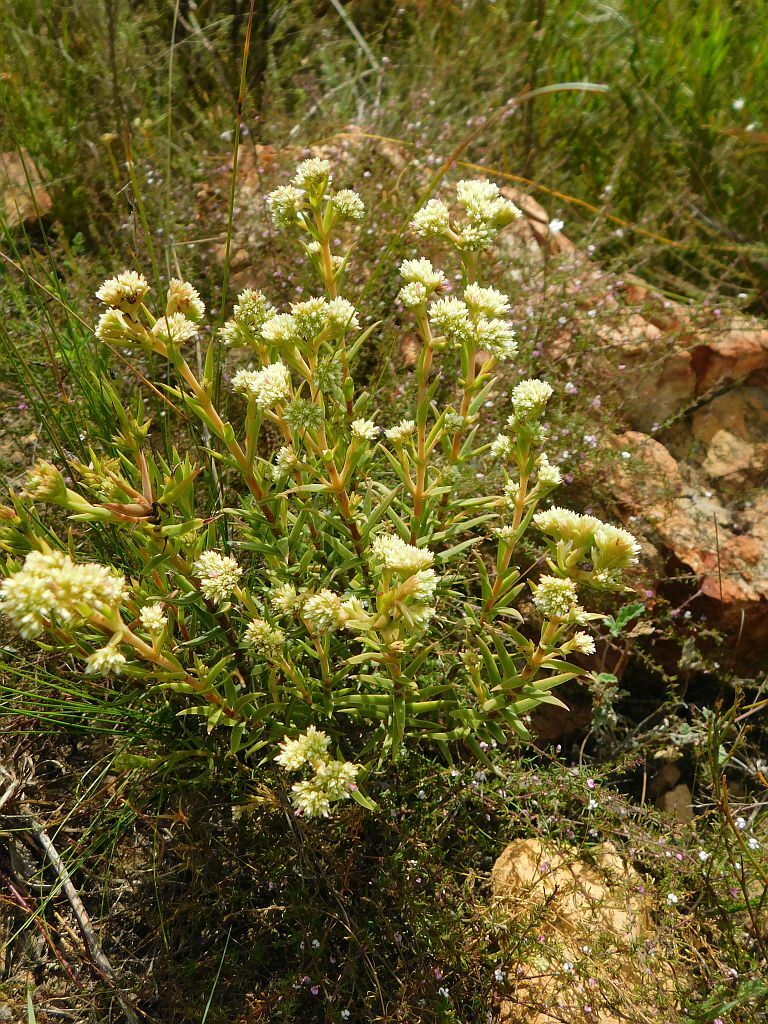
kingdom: Plantae
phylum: Tracheophyta
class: Magnoliopsida
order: Saxifragales
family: Crassulaceae
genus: Crassula
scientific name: Crassula subulata
